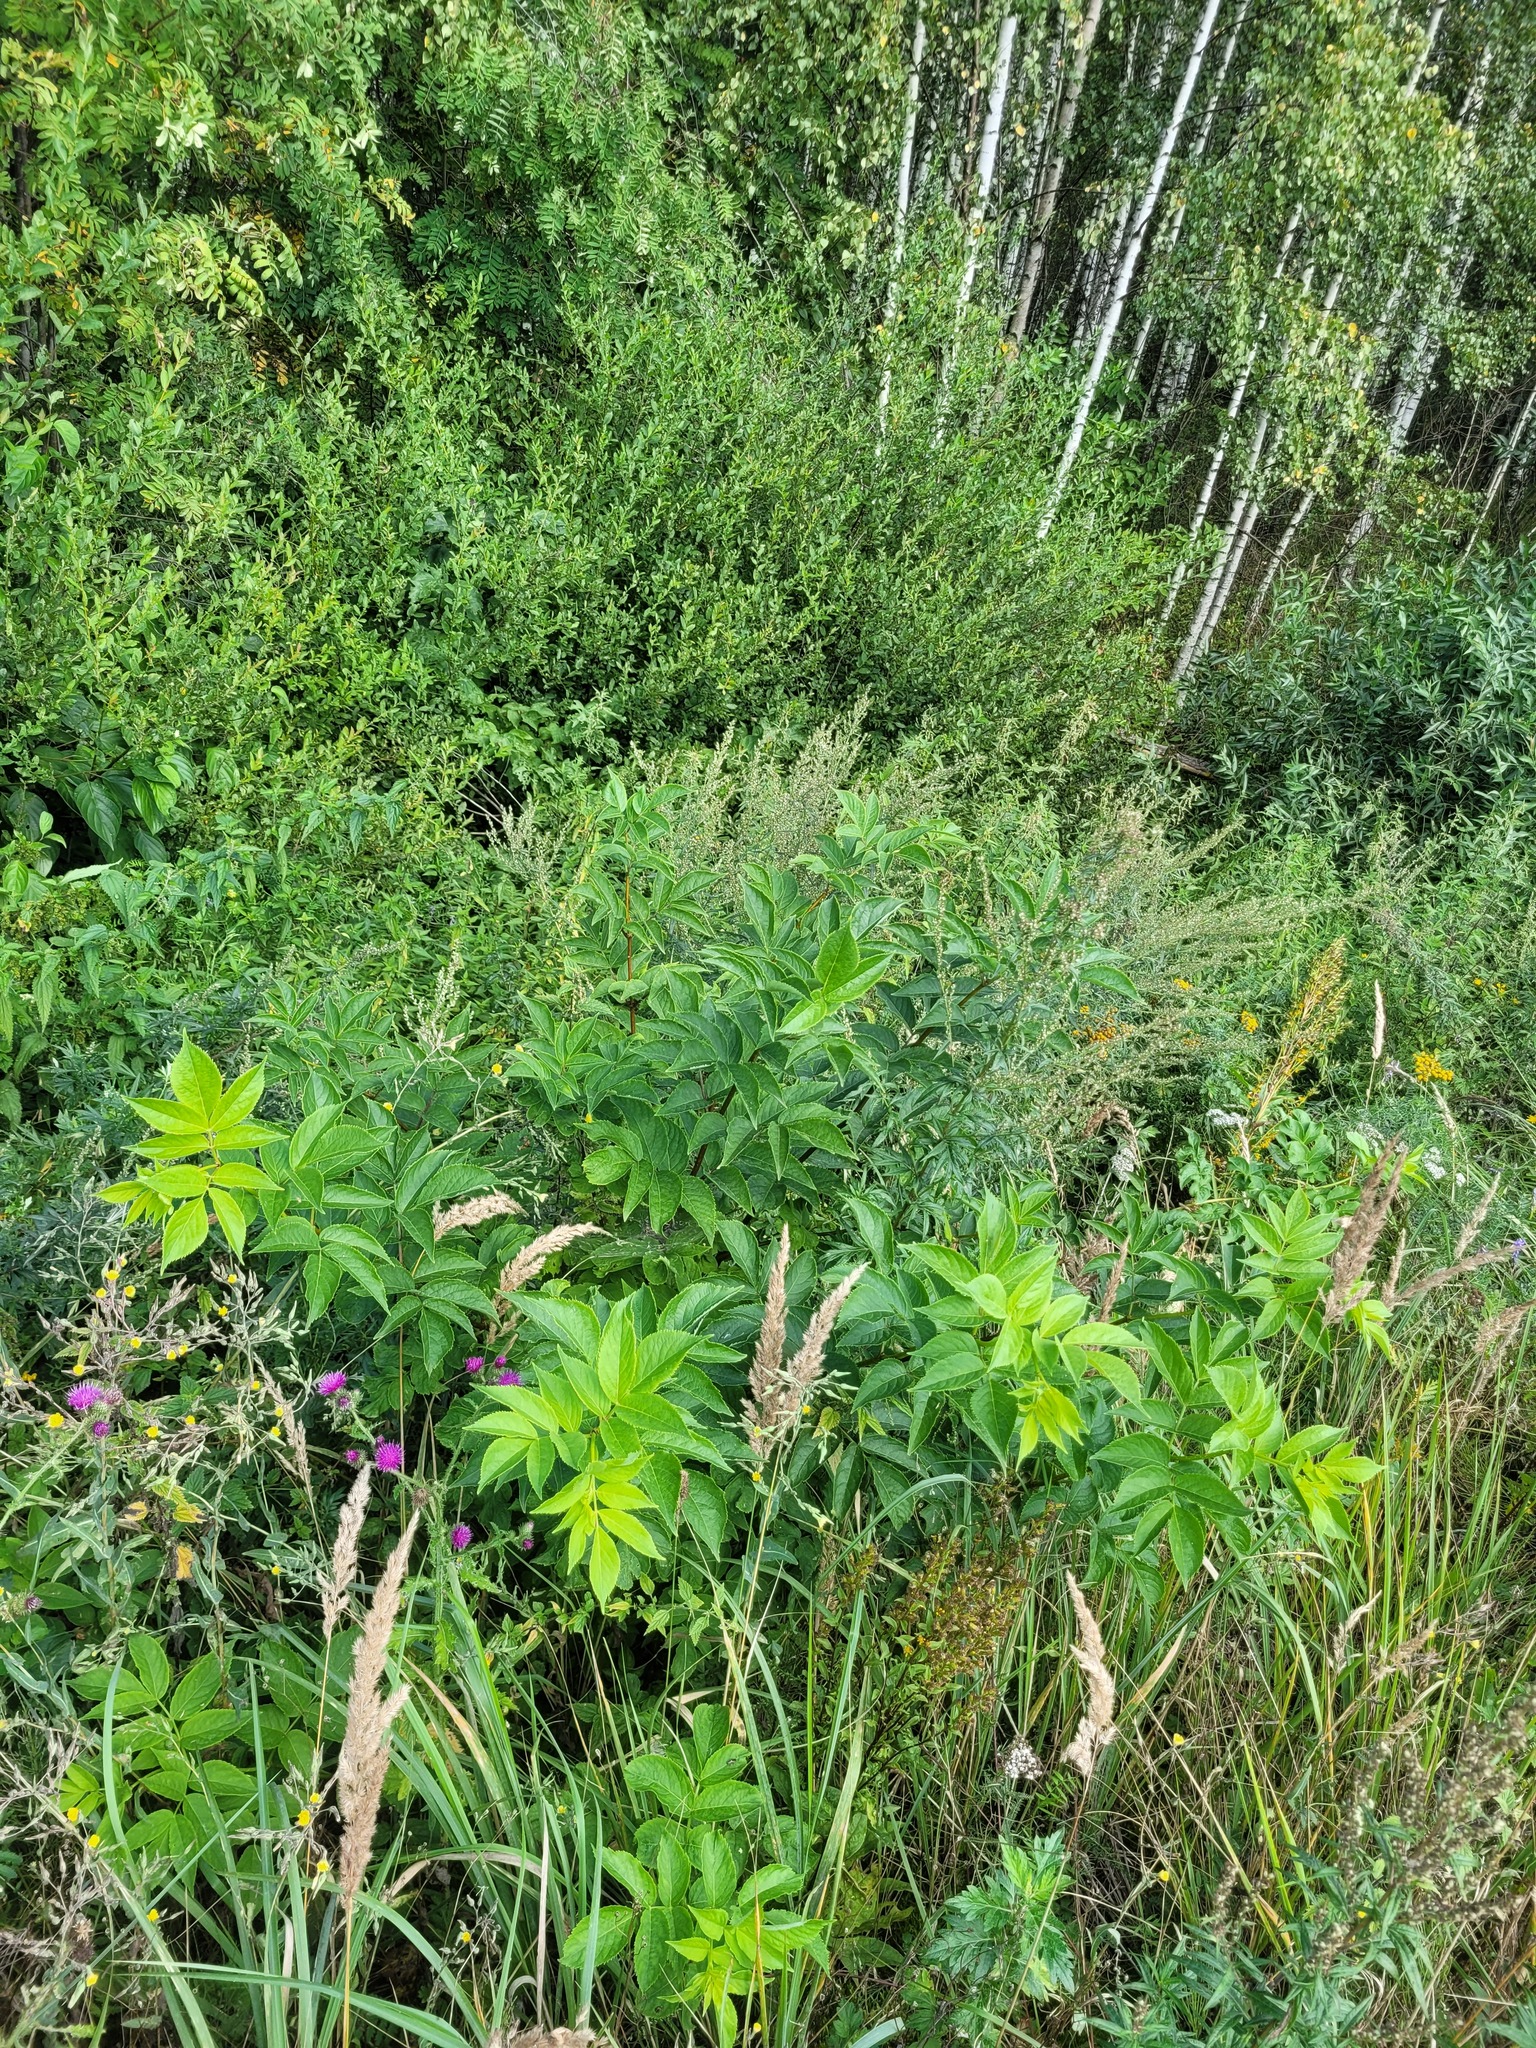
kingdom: Plantae
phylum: Tracheophyta
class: Magnoliopsida
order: Dipsacales
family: Viburnaceae
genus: Sambucus
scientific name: Sambucus racemosa
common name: Red-berried elder
